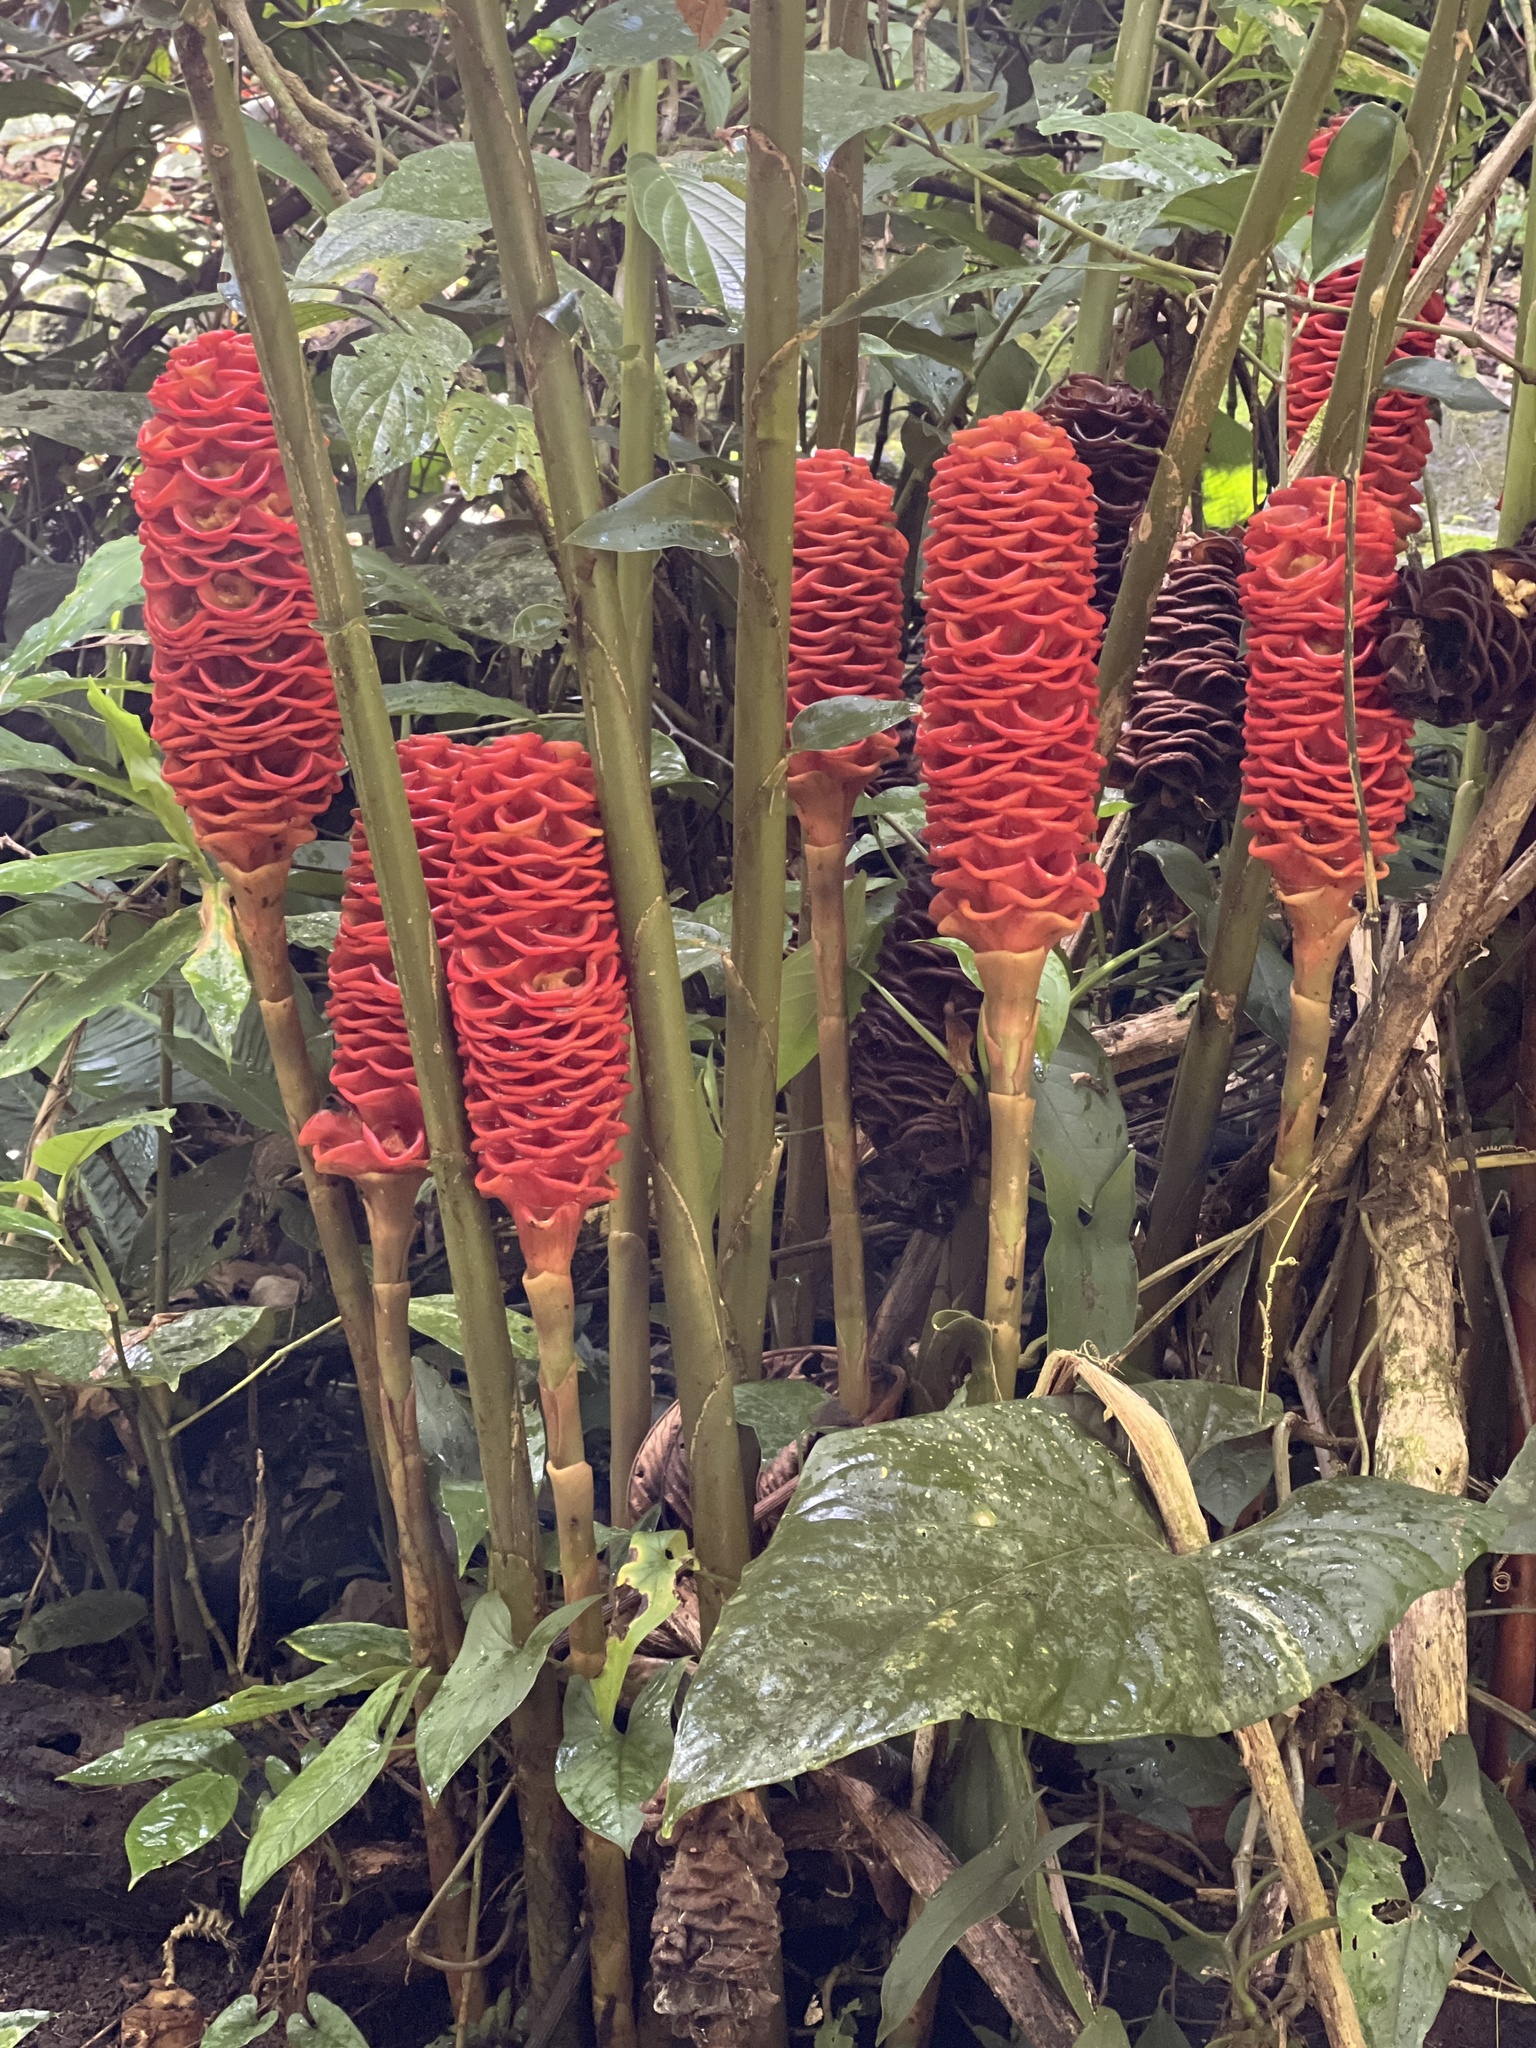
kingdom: Plantae
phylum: Tracheophyta
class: Liliopsida
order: Zingiberales
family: Zingiberaceae
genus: Zingiber
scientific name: Zingiber spectabile
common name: Beehive ginger
